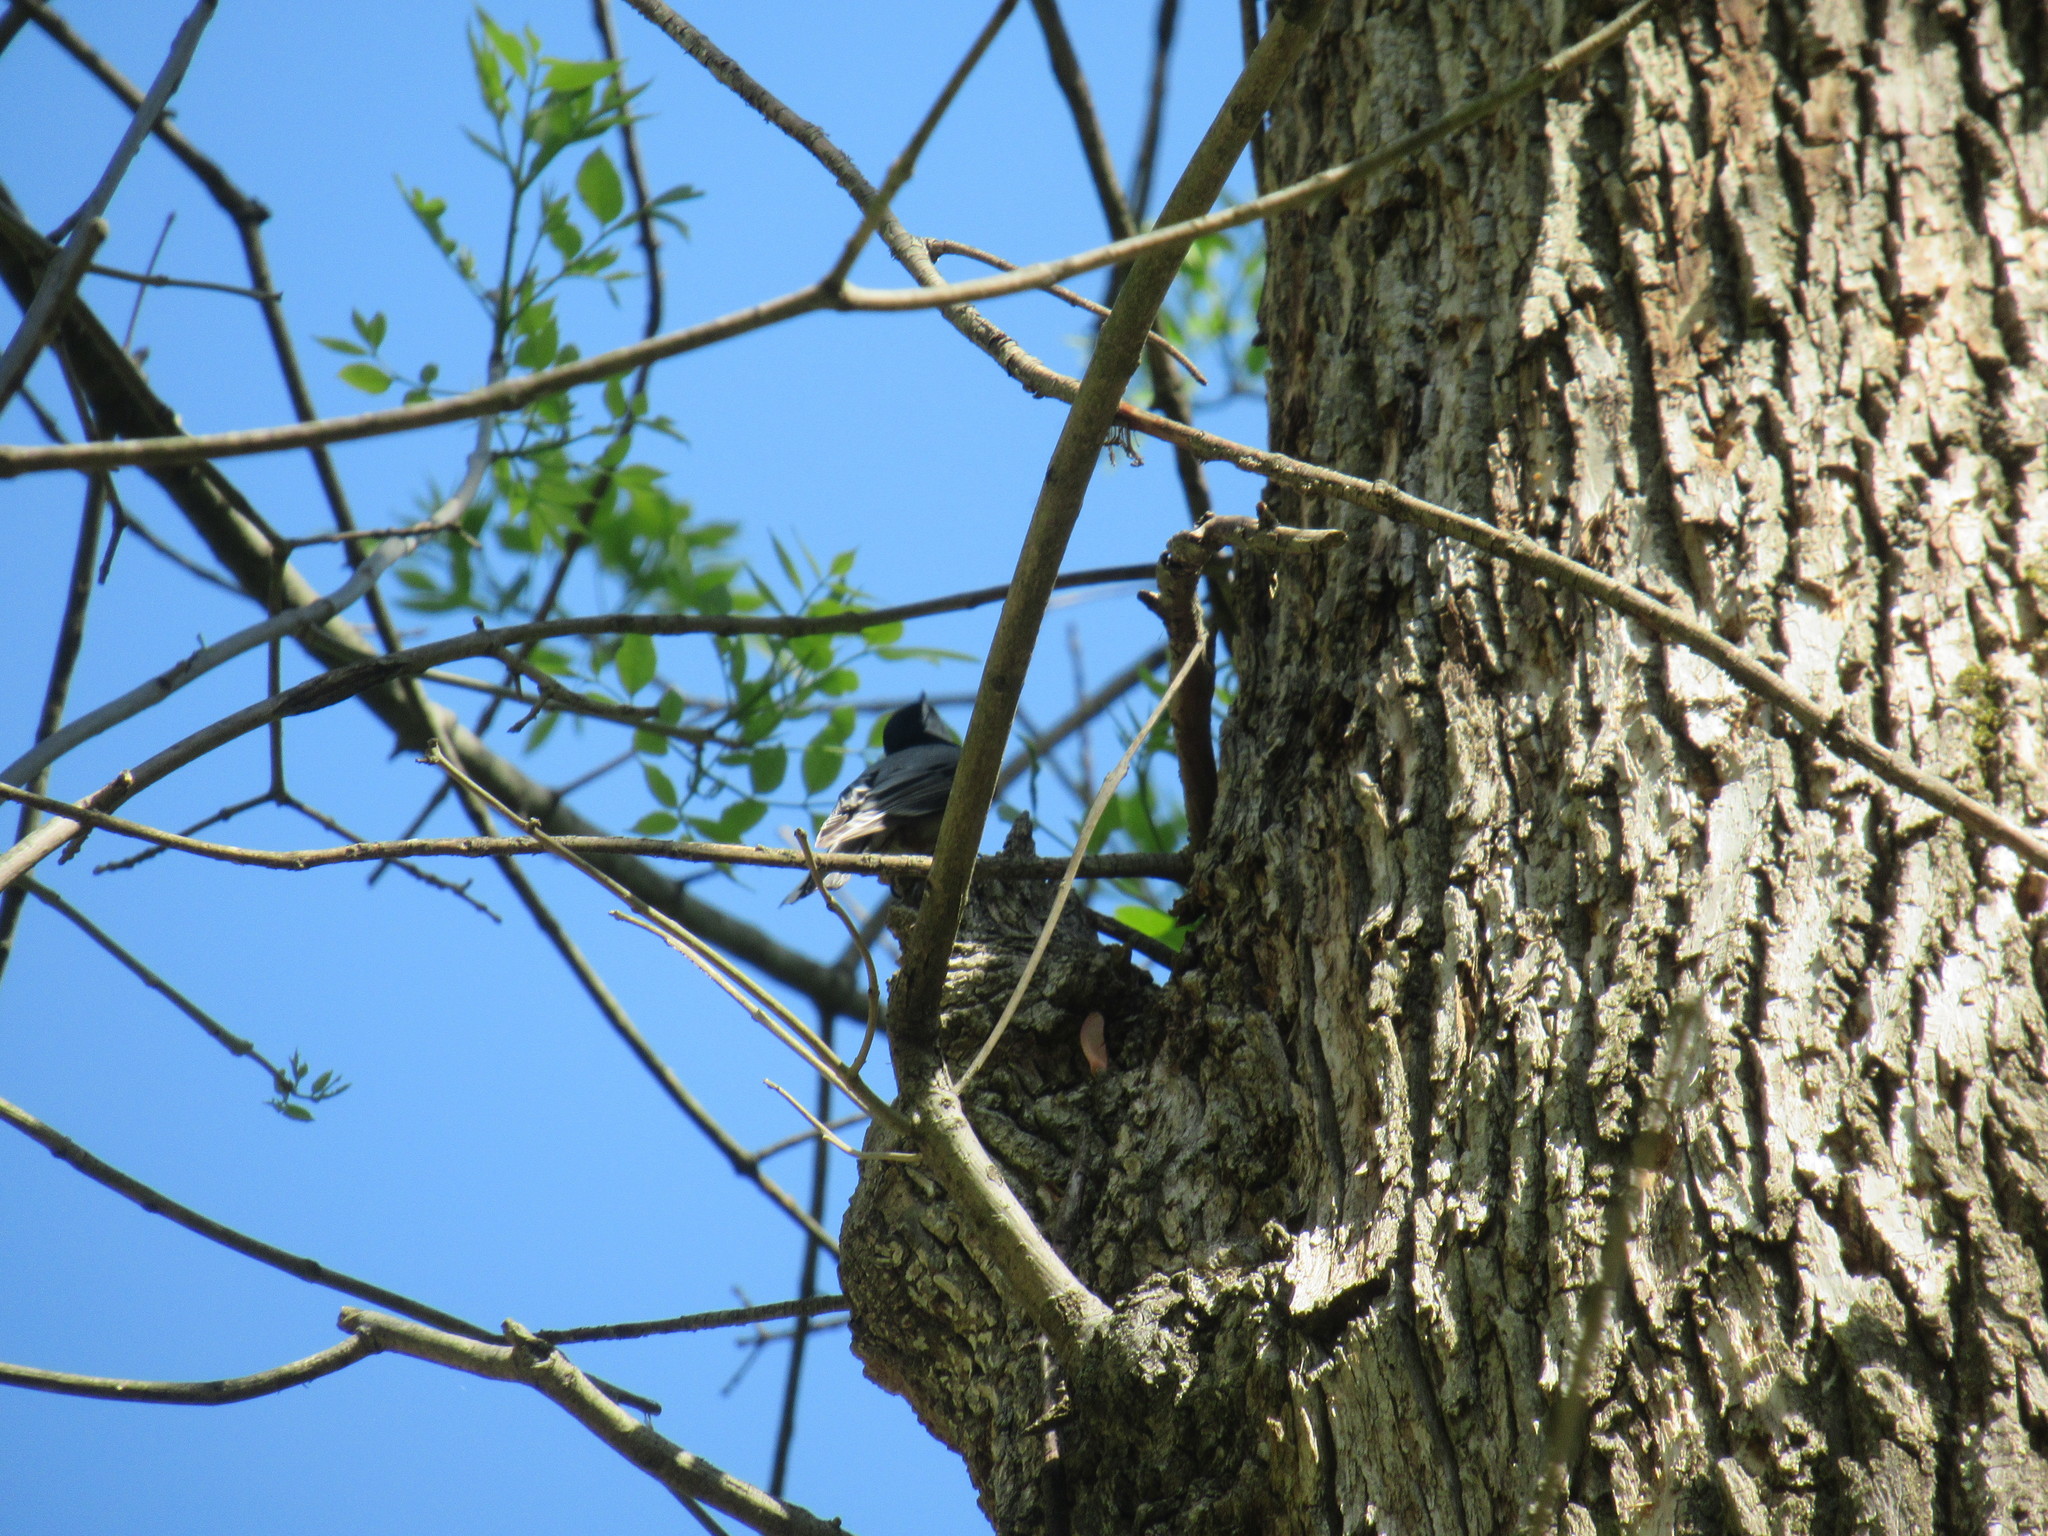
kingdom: Animalia
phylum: Chordata
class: Aves
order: Passeriformes
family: Sittidae
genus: Sitta
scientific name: Sitta carolinensis
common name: White-breasted nuthatch
